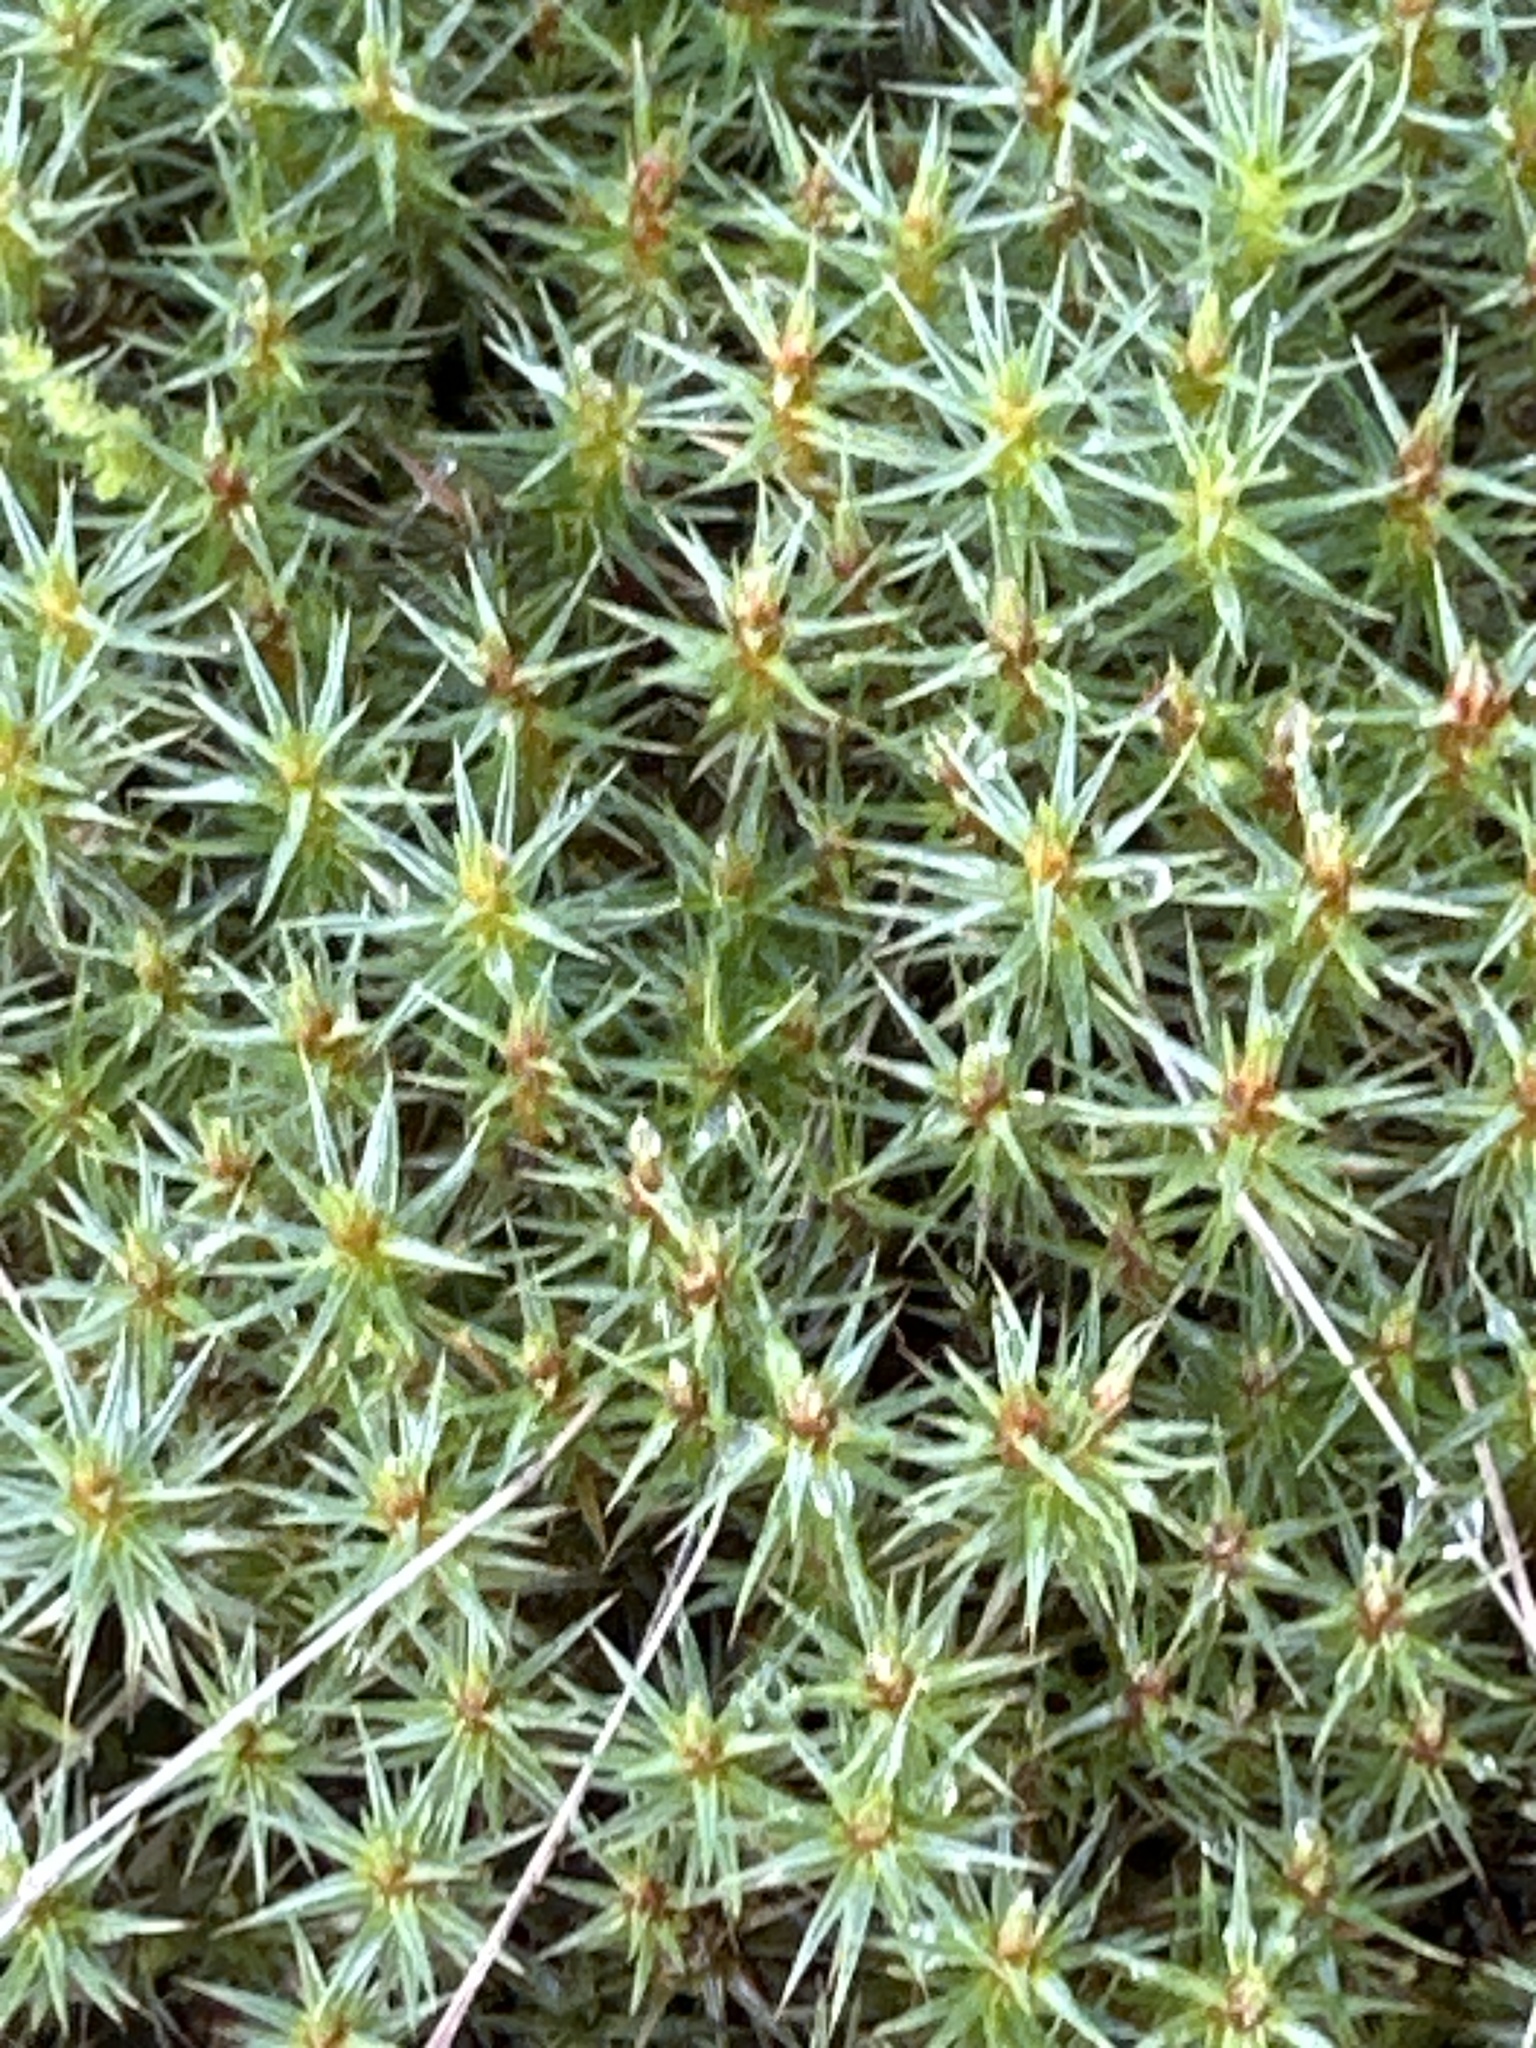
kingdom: Plantae
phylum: Bryophyta
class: Polytrichopsida
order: Polytrichales
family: Polytrichaceae
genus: Polytrichum
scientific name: Polytrichum juniperinum
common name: Juniper haircap moss
